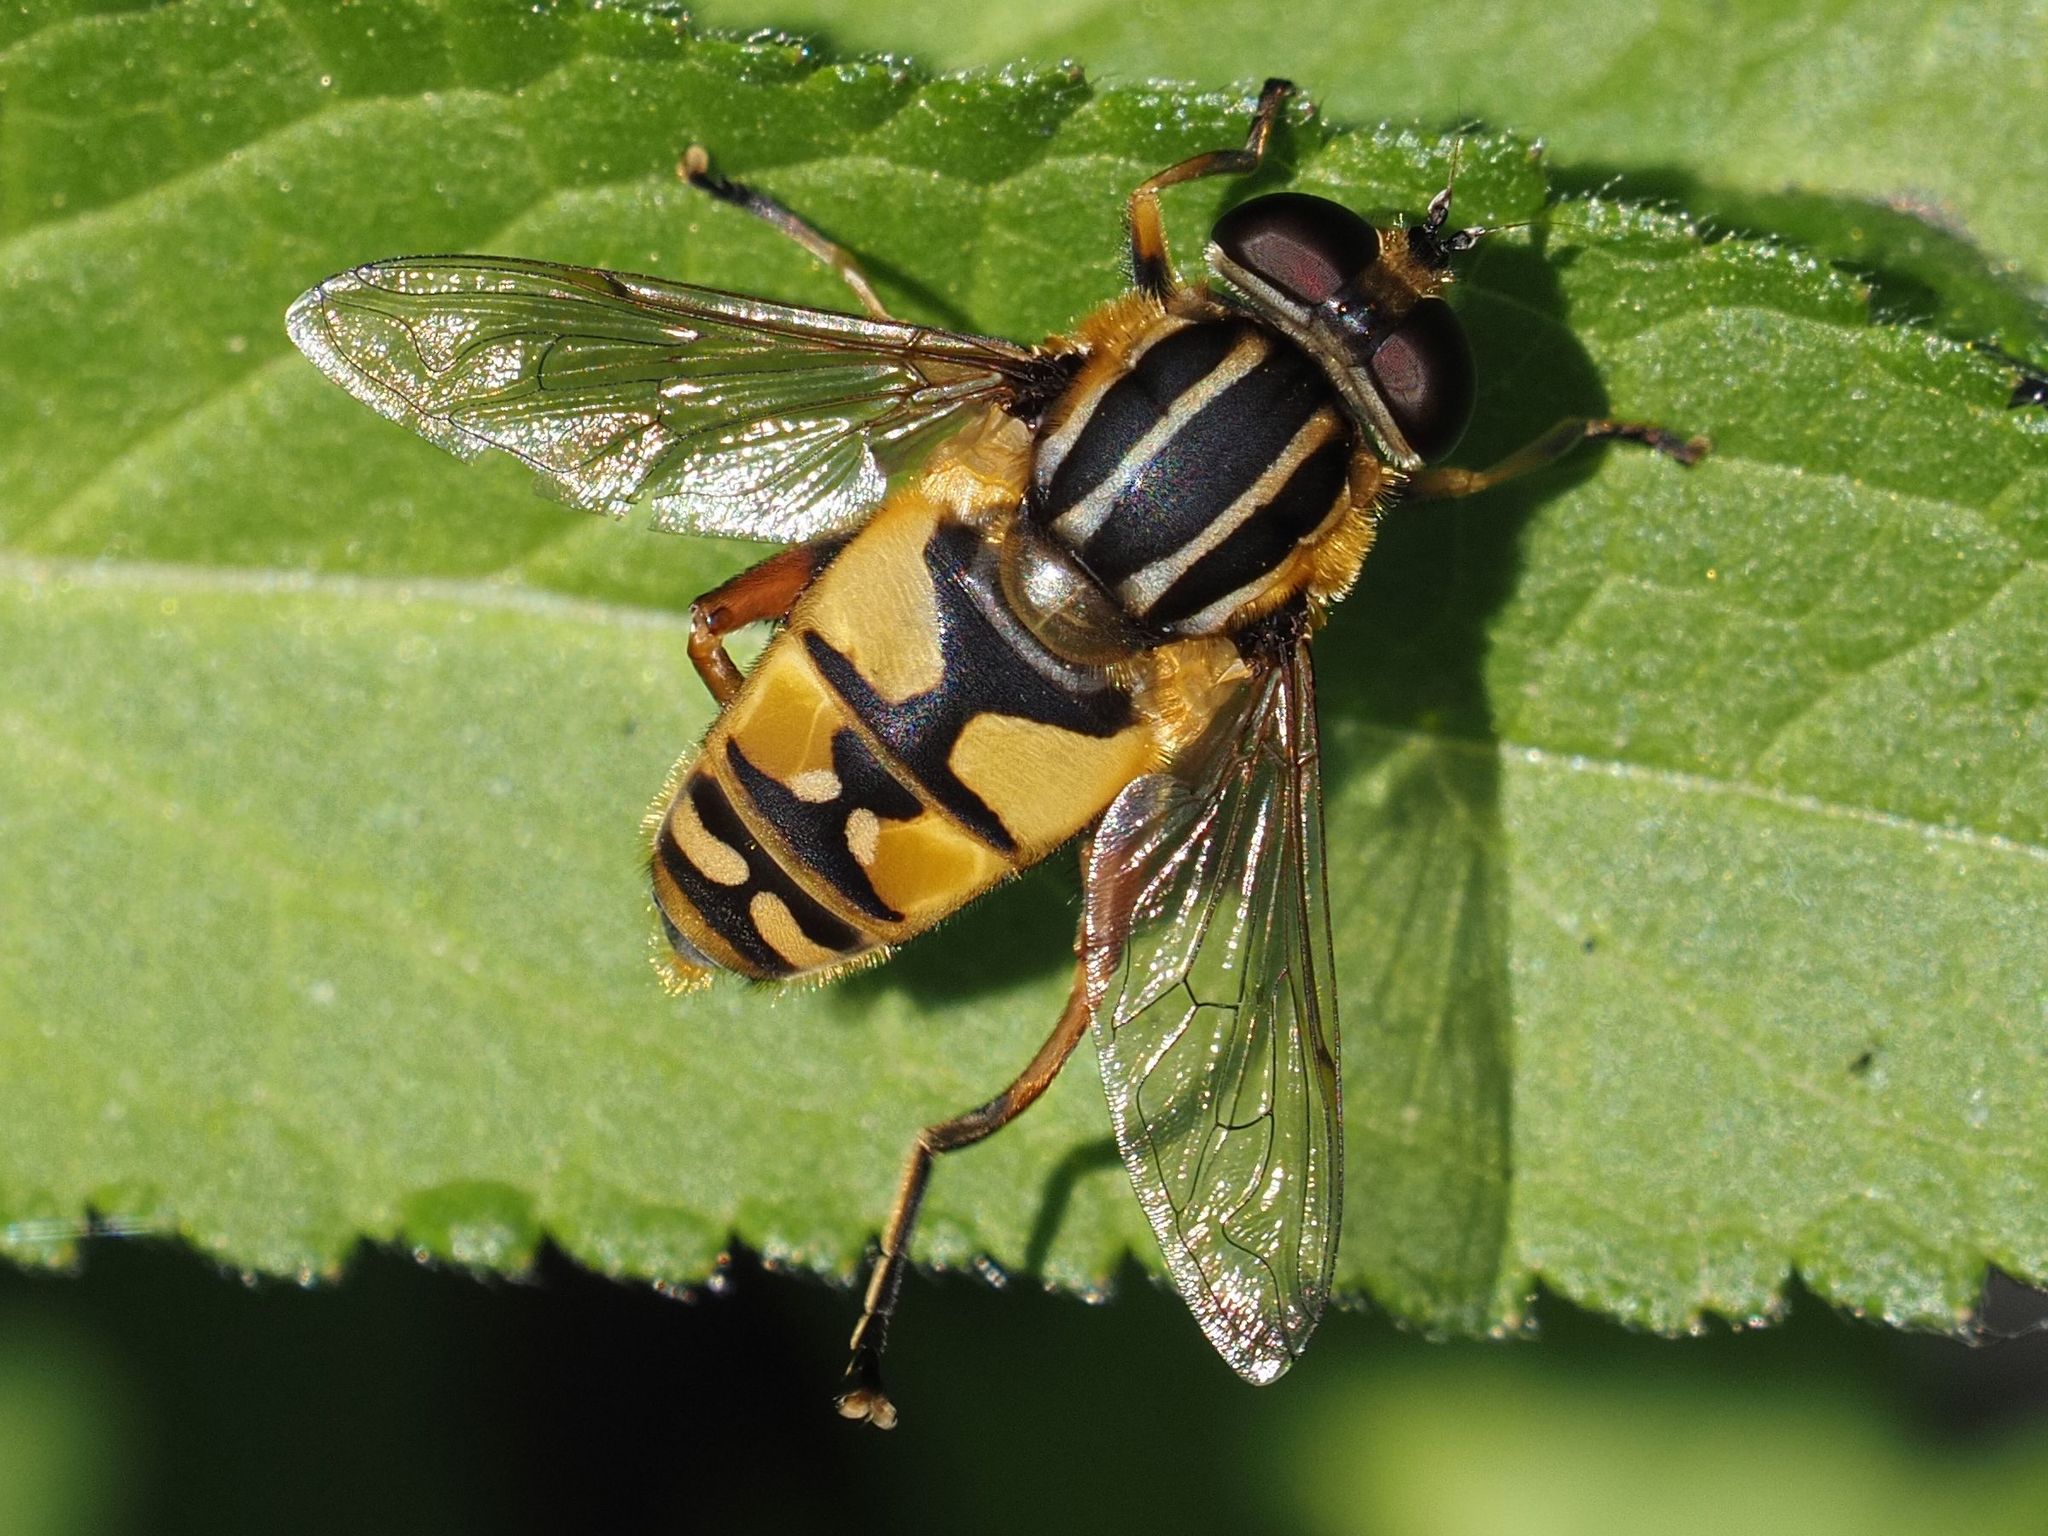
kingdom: Animalia
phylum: Arthropoda
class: Insecta
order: Diptera
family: Syrphidae
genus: Helophilus
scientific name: Helophilus pendulus
